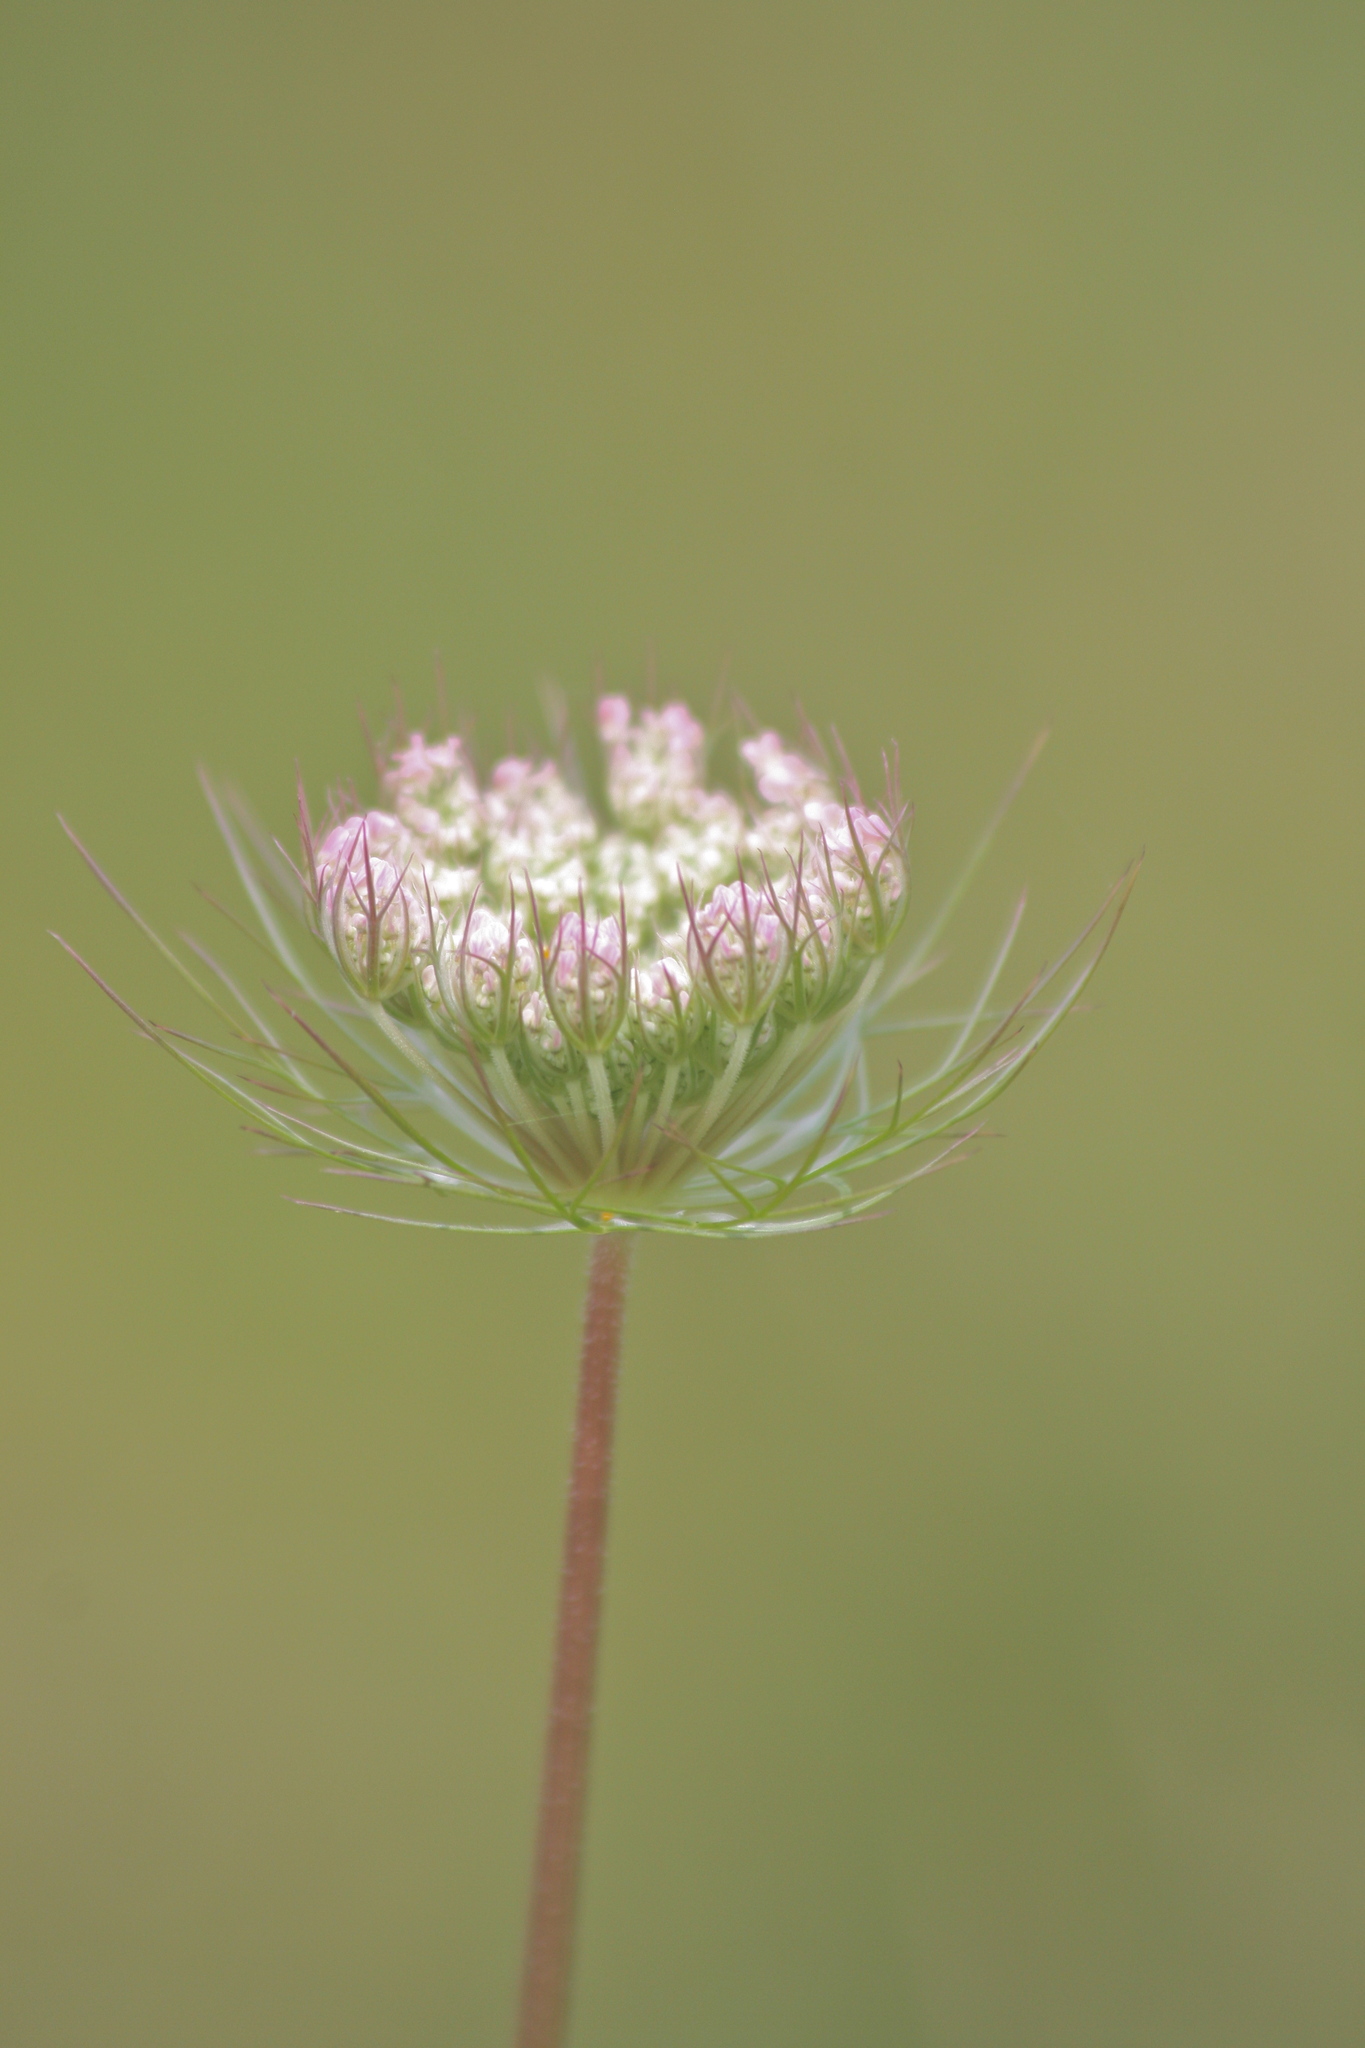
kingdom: Plantae
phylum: Tracheophyta
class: Magnoliopsida
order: Apiales
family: Apiaceae
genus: Daucus
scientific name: Daucus carota
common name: Wild carrot
